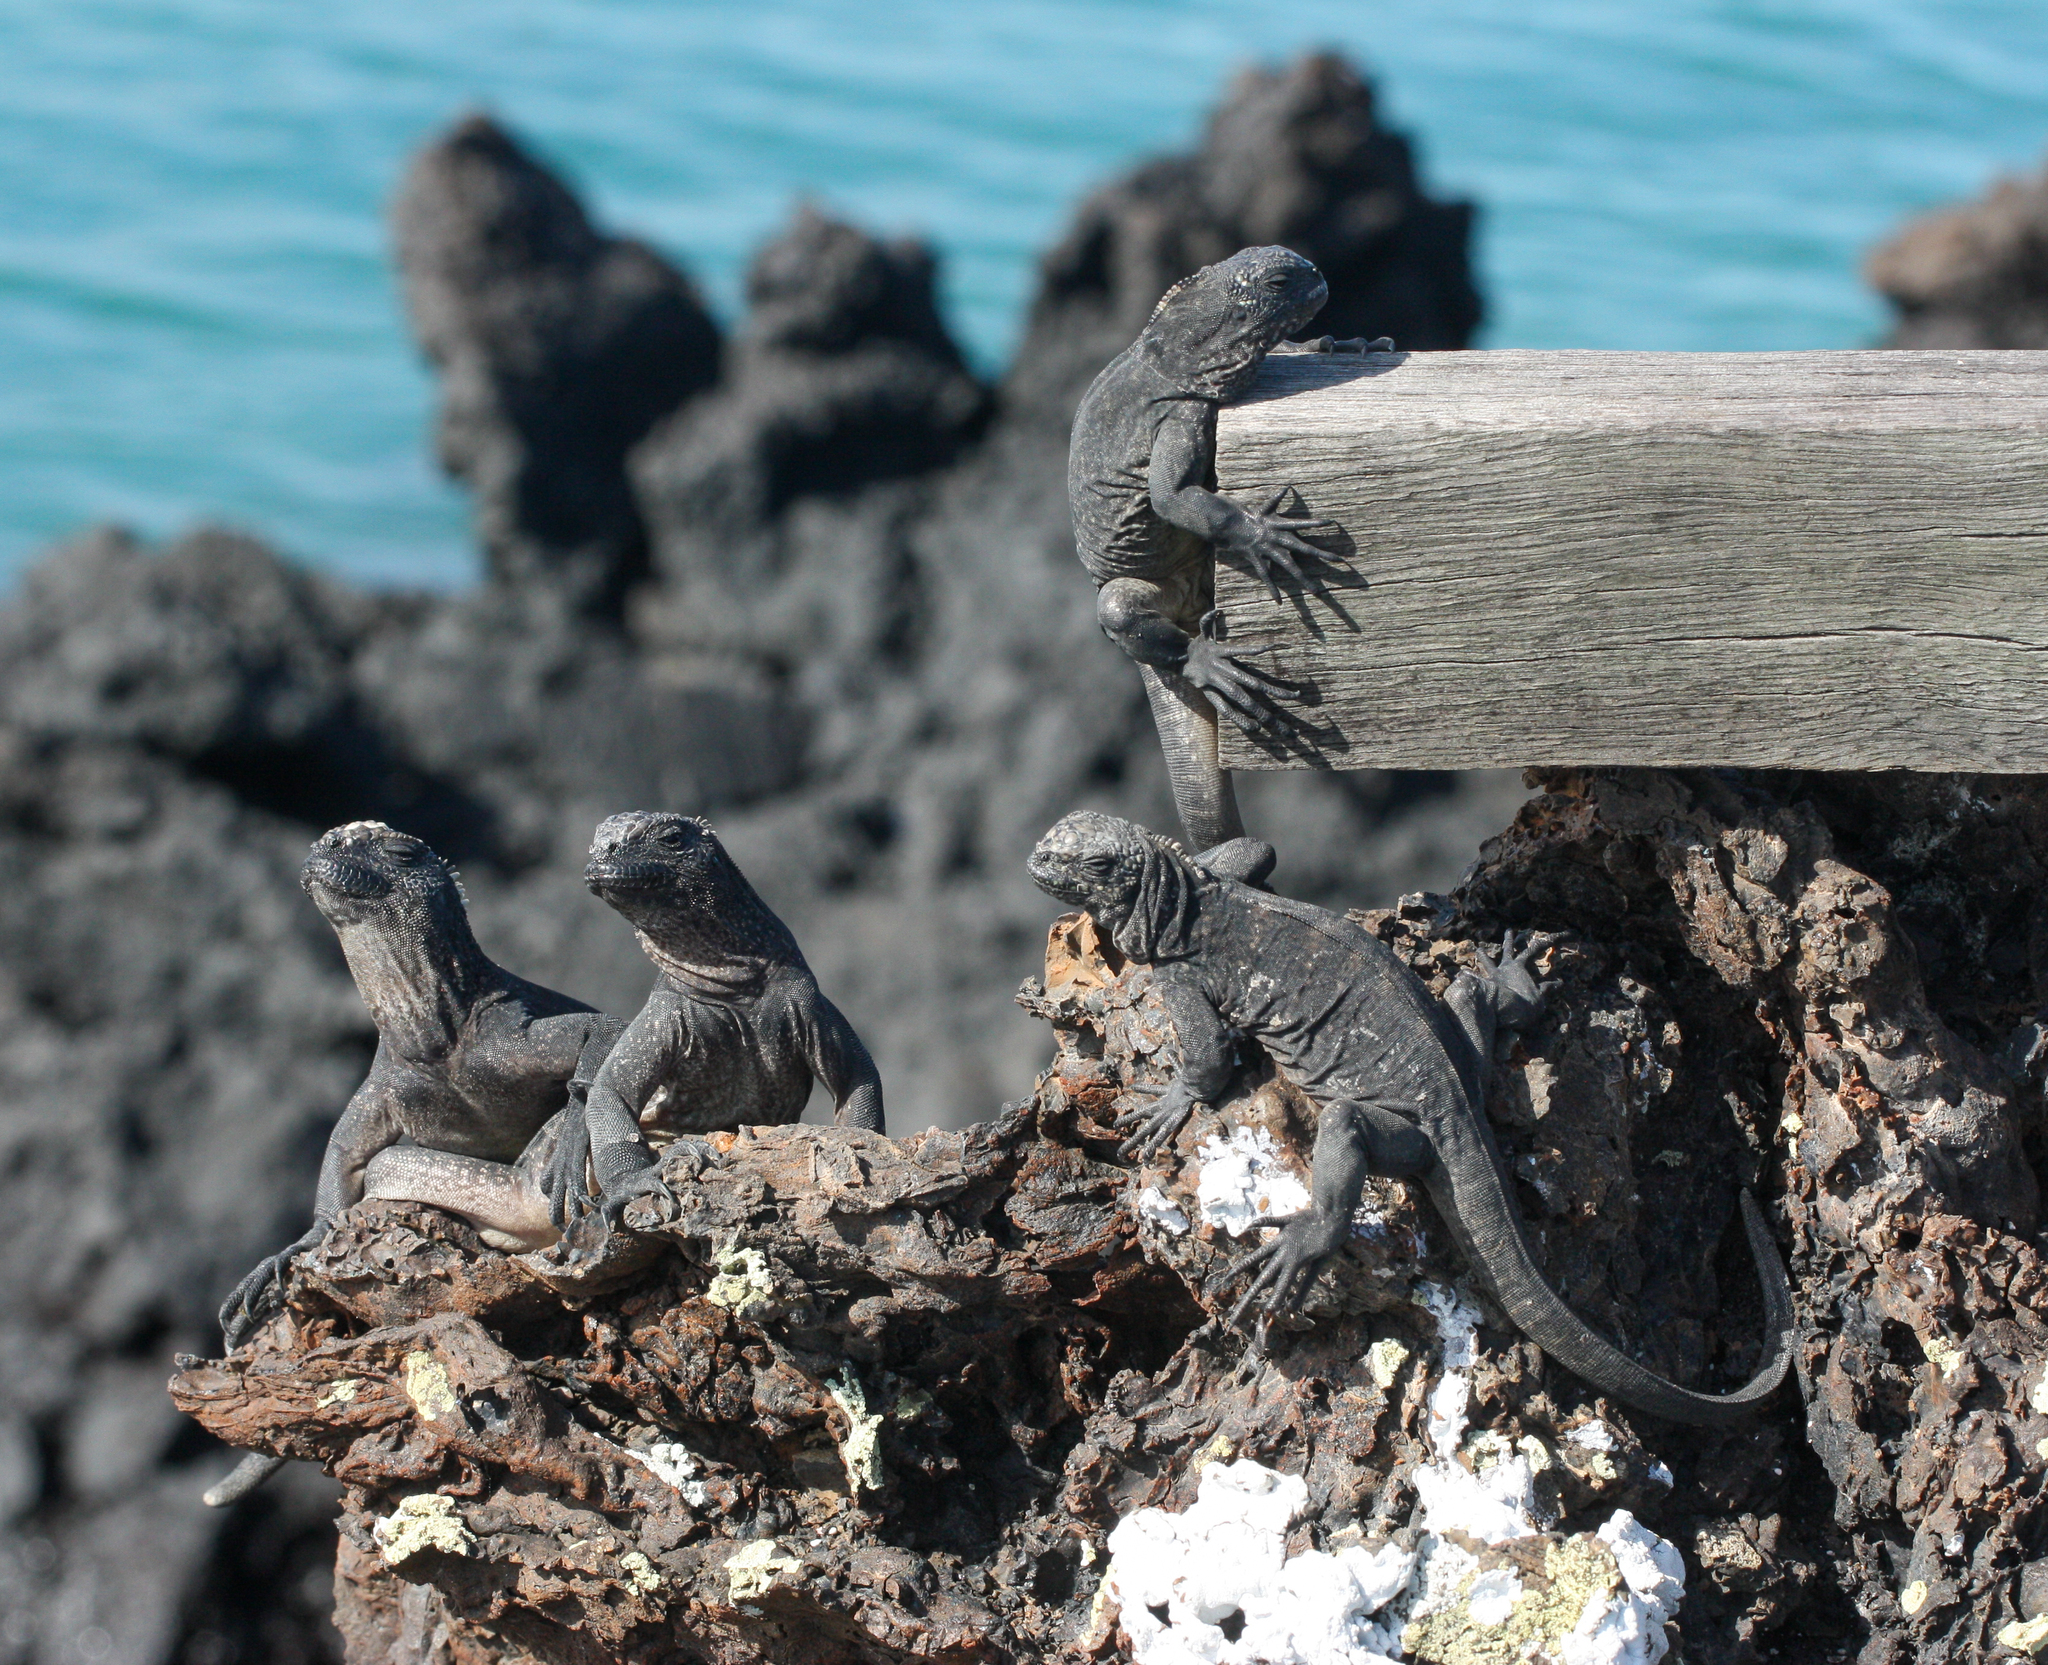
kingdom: Animalia
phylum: Chordata
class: Squamata
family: Iguanidae
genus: Amblyrhynchus
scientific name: Amblyrhynchus cristatus
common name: Marine iguana
